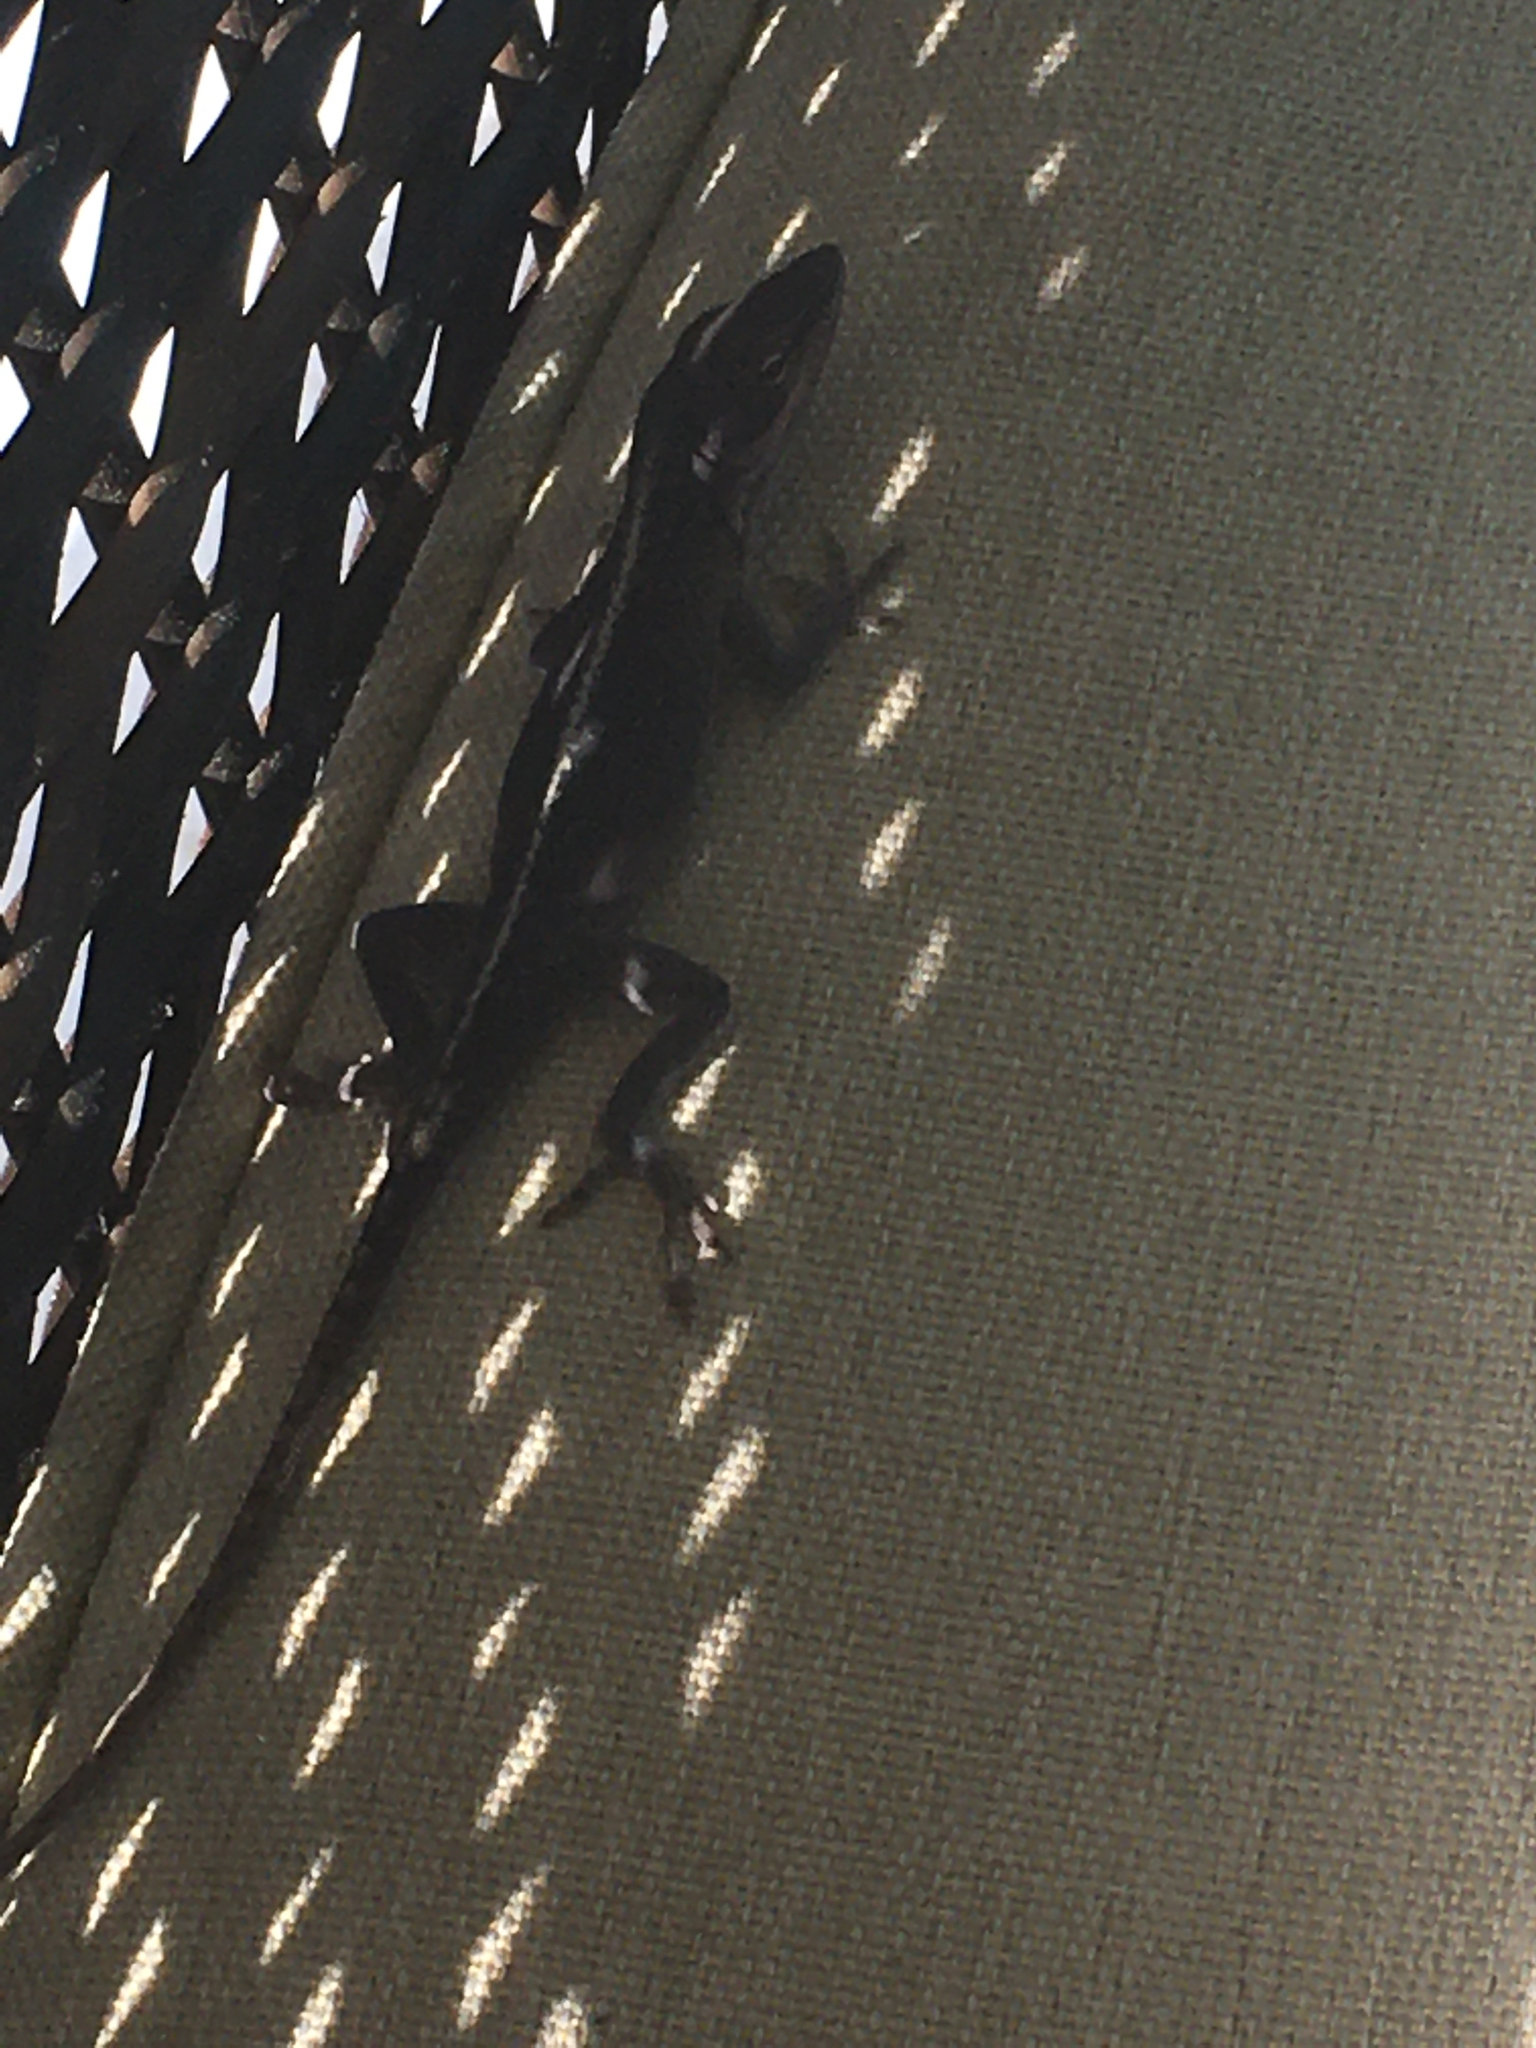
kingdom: Animalia
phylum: Chordata
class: Squamata
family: Dactyloidae
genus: Anolis
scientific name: Anolis carolinensis
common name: Green anole
